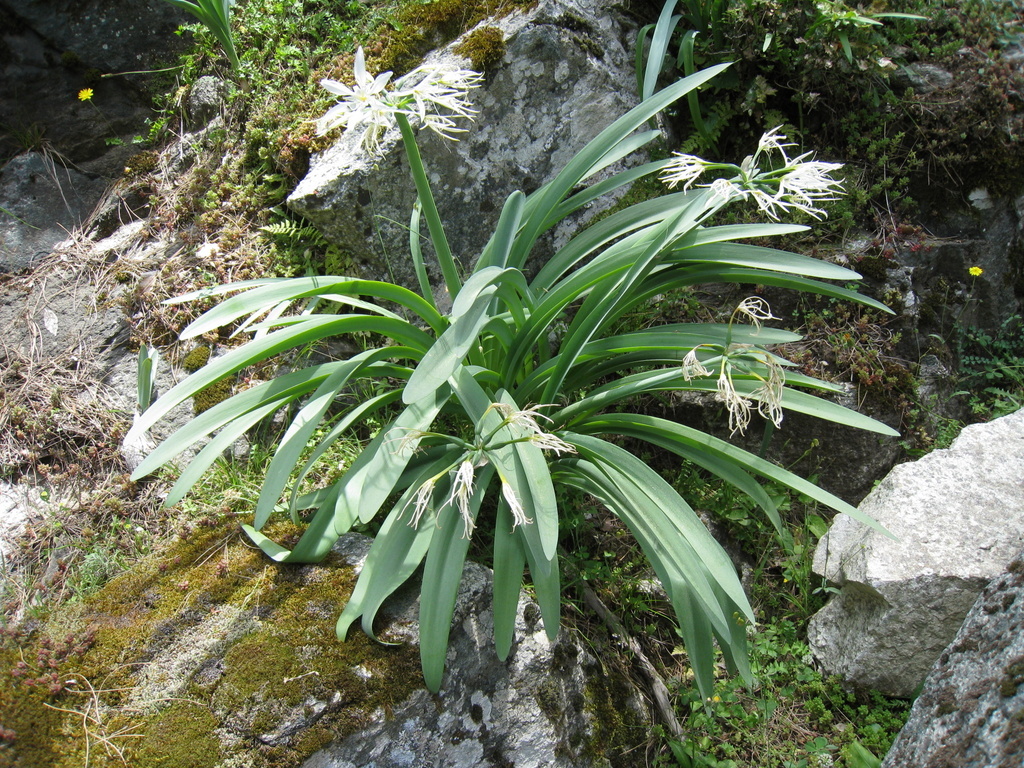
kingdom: Plantae
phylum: Tracheophyta
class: Liliopsida
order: Asparagales
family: Amaryllidaceae
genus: Pancratium
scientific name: Pancratium illyricum
